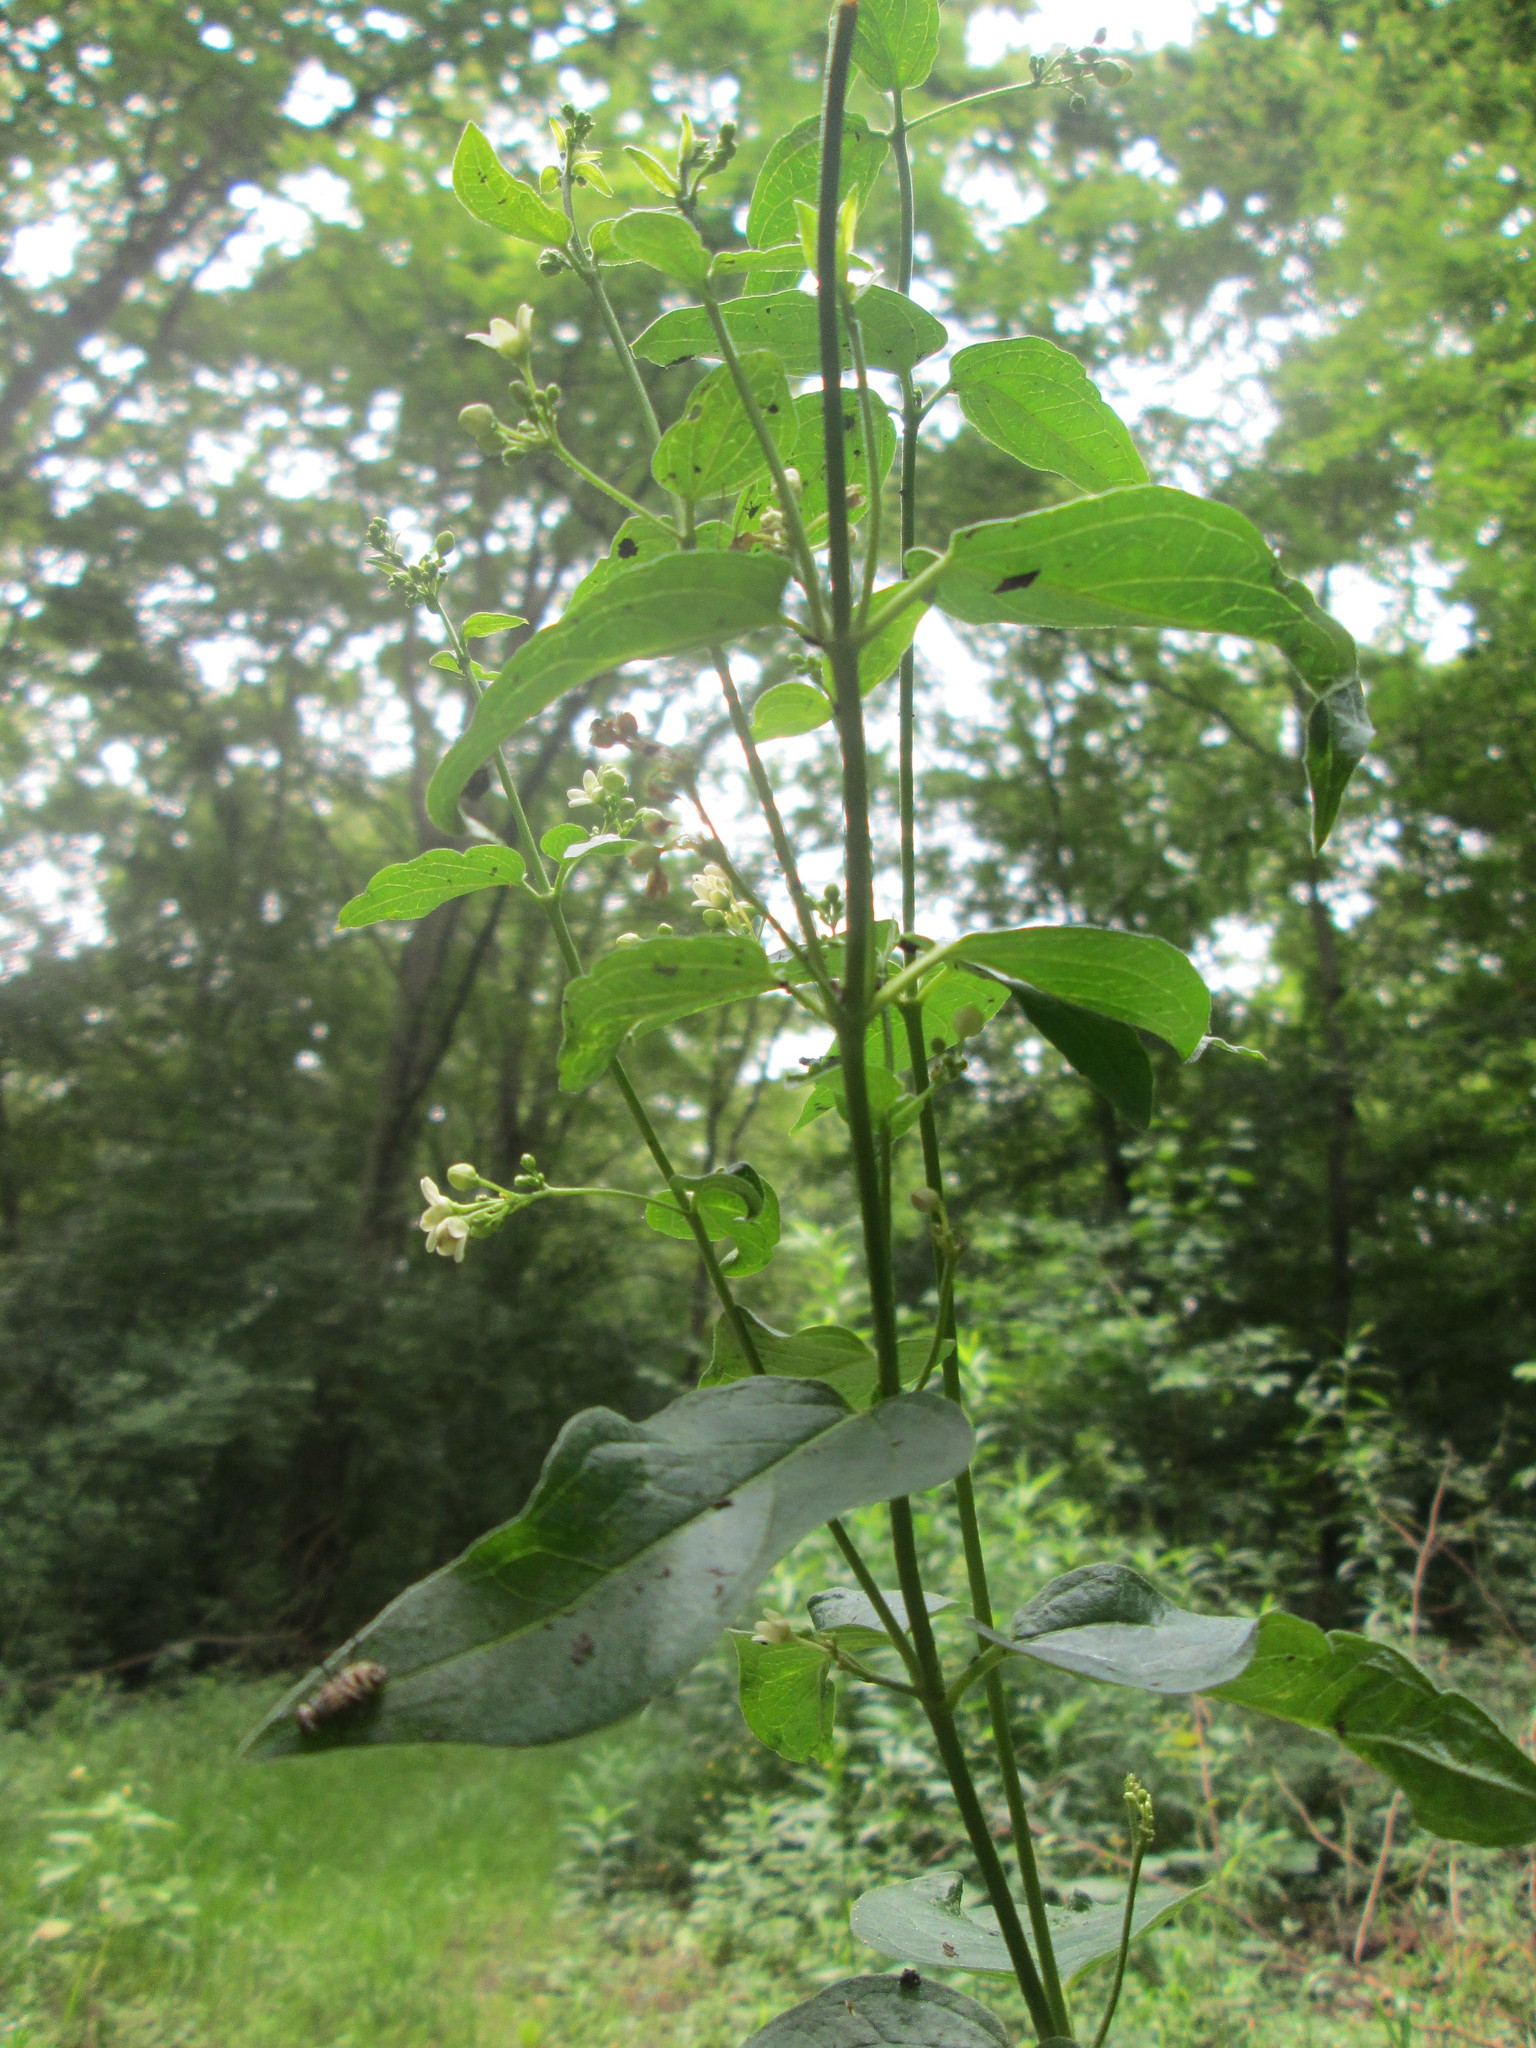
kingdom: Plantae
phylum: Tracheophyta
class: Magnoliopsida
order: Gentianales
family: Apocynaceae
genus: Vincetoxicum
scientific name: Vincetoxicum hirundinaria
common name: White swallowwort
